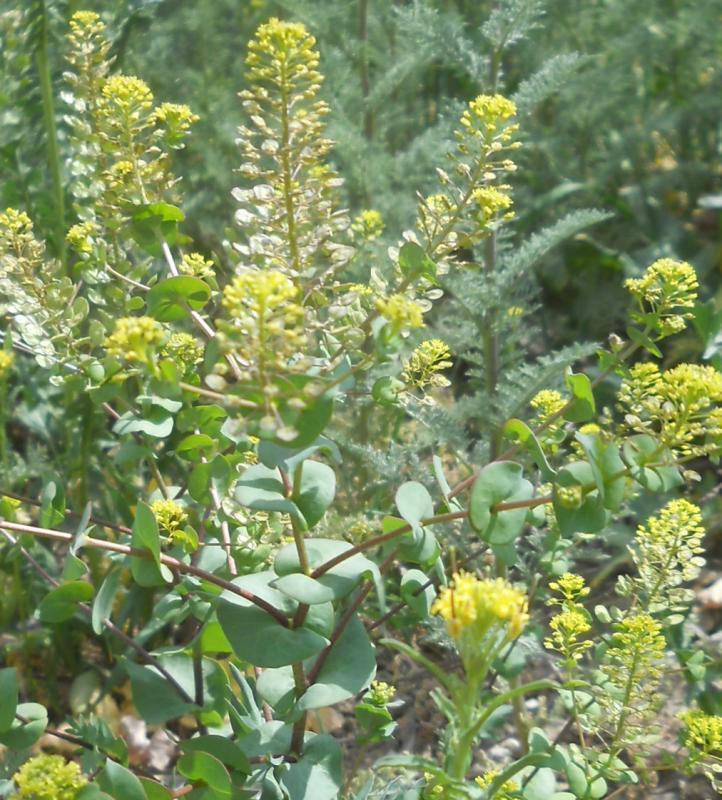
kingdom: Plantae
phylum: Tracheophyta
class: Magnoliopsida
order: Brassicales
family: Brassicaceae
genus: Lepidium
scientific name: Lepidium perfoliatum
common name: Perfoliate pepperwort
